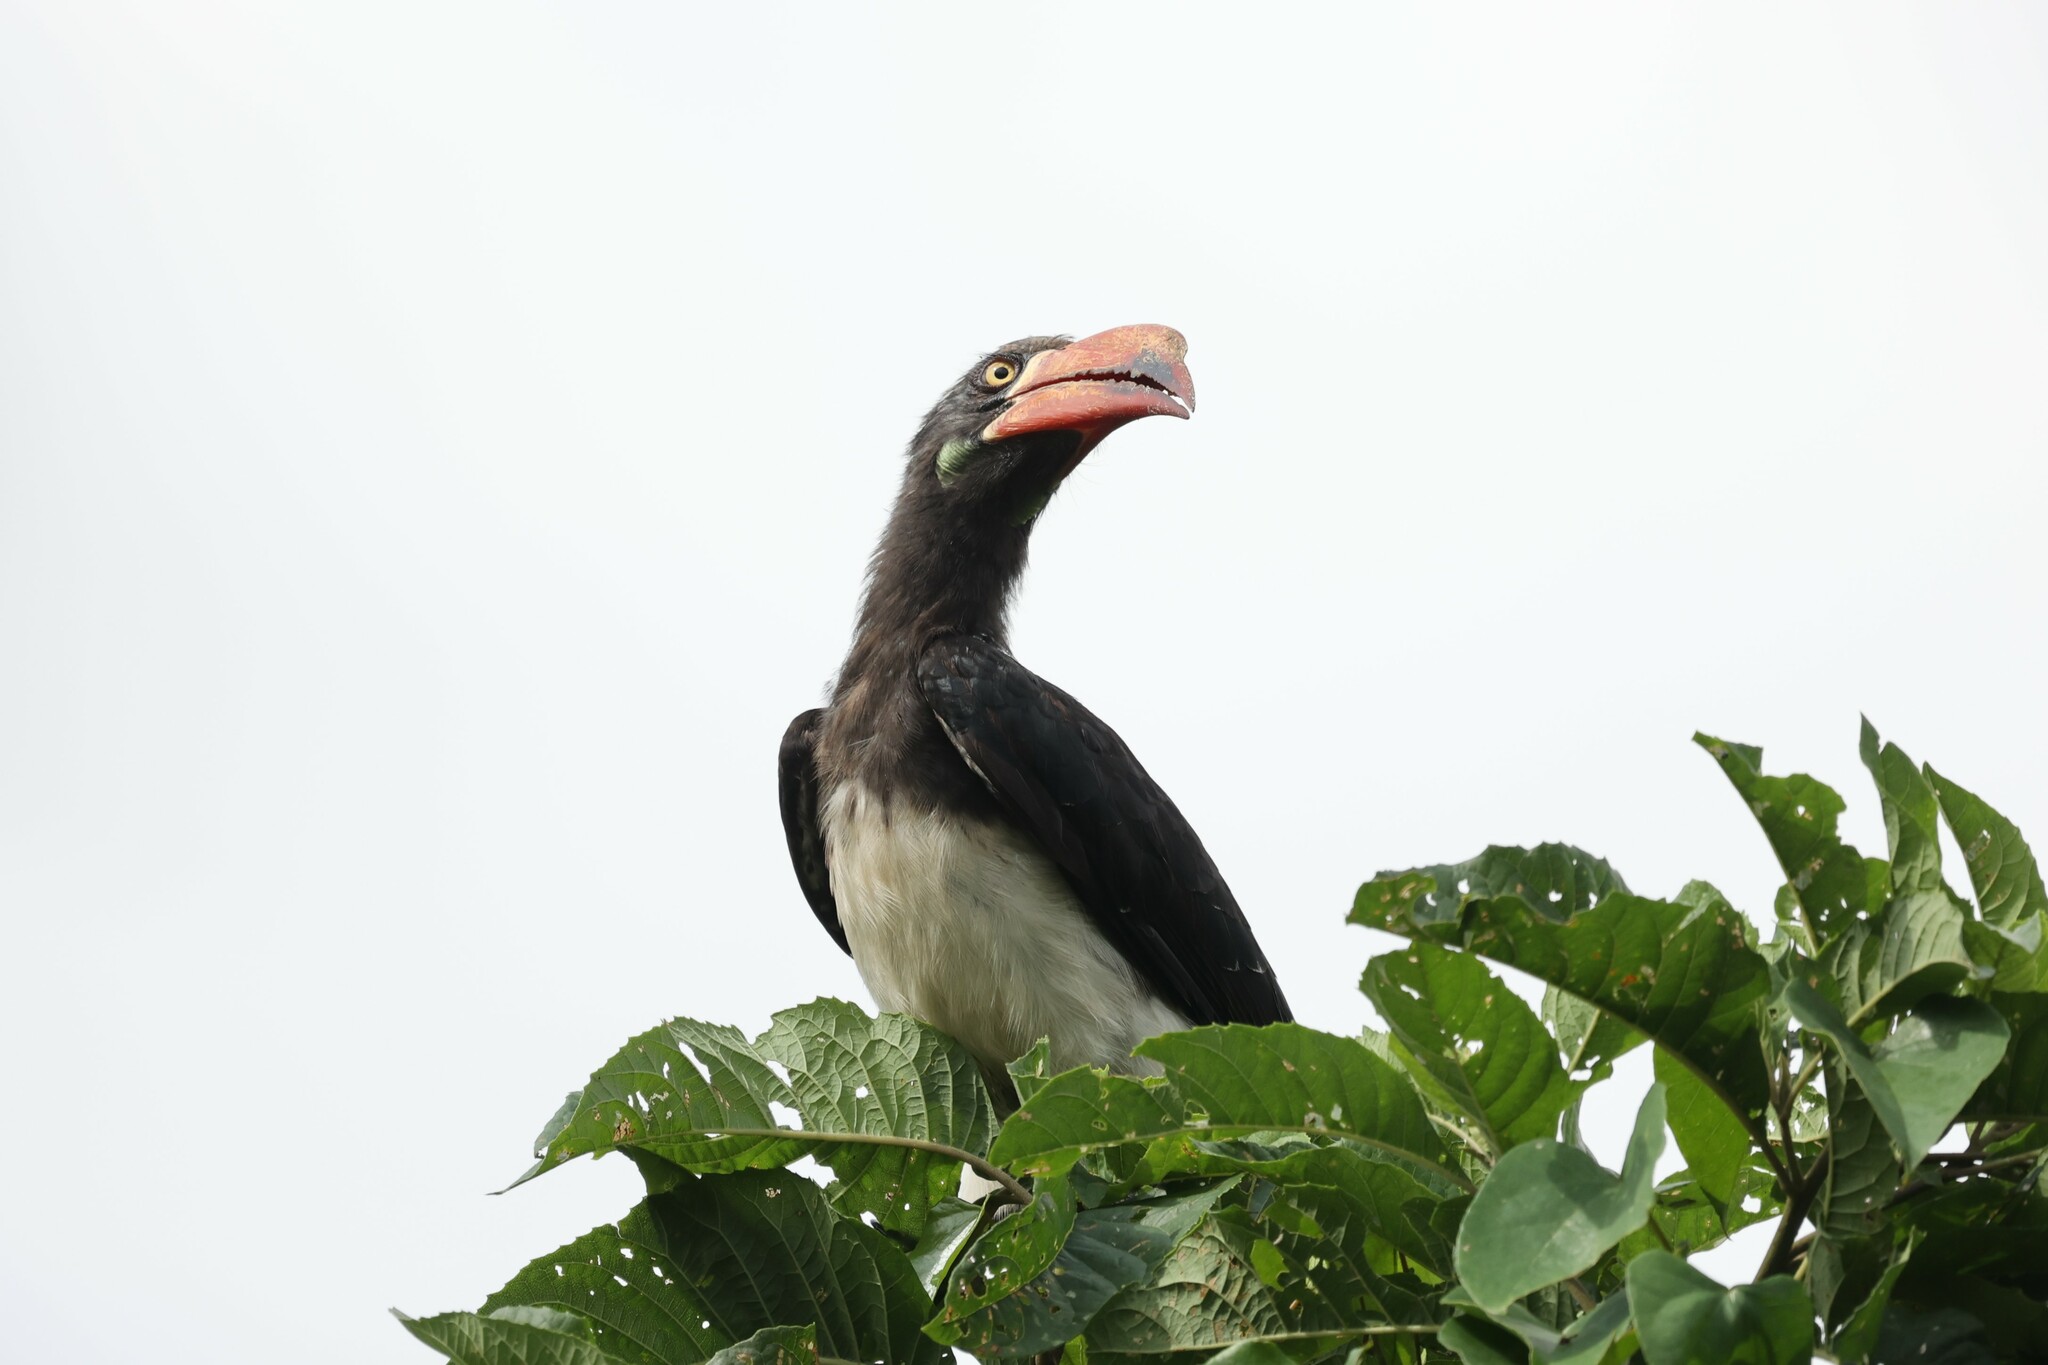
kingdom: Animalia
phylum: Chordata
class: Aves
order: Bucerotiformes
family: Bucerotidae
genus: Lophoceros
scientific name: Lophoceros alboterminatus
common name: Crowned hornbill
